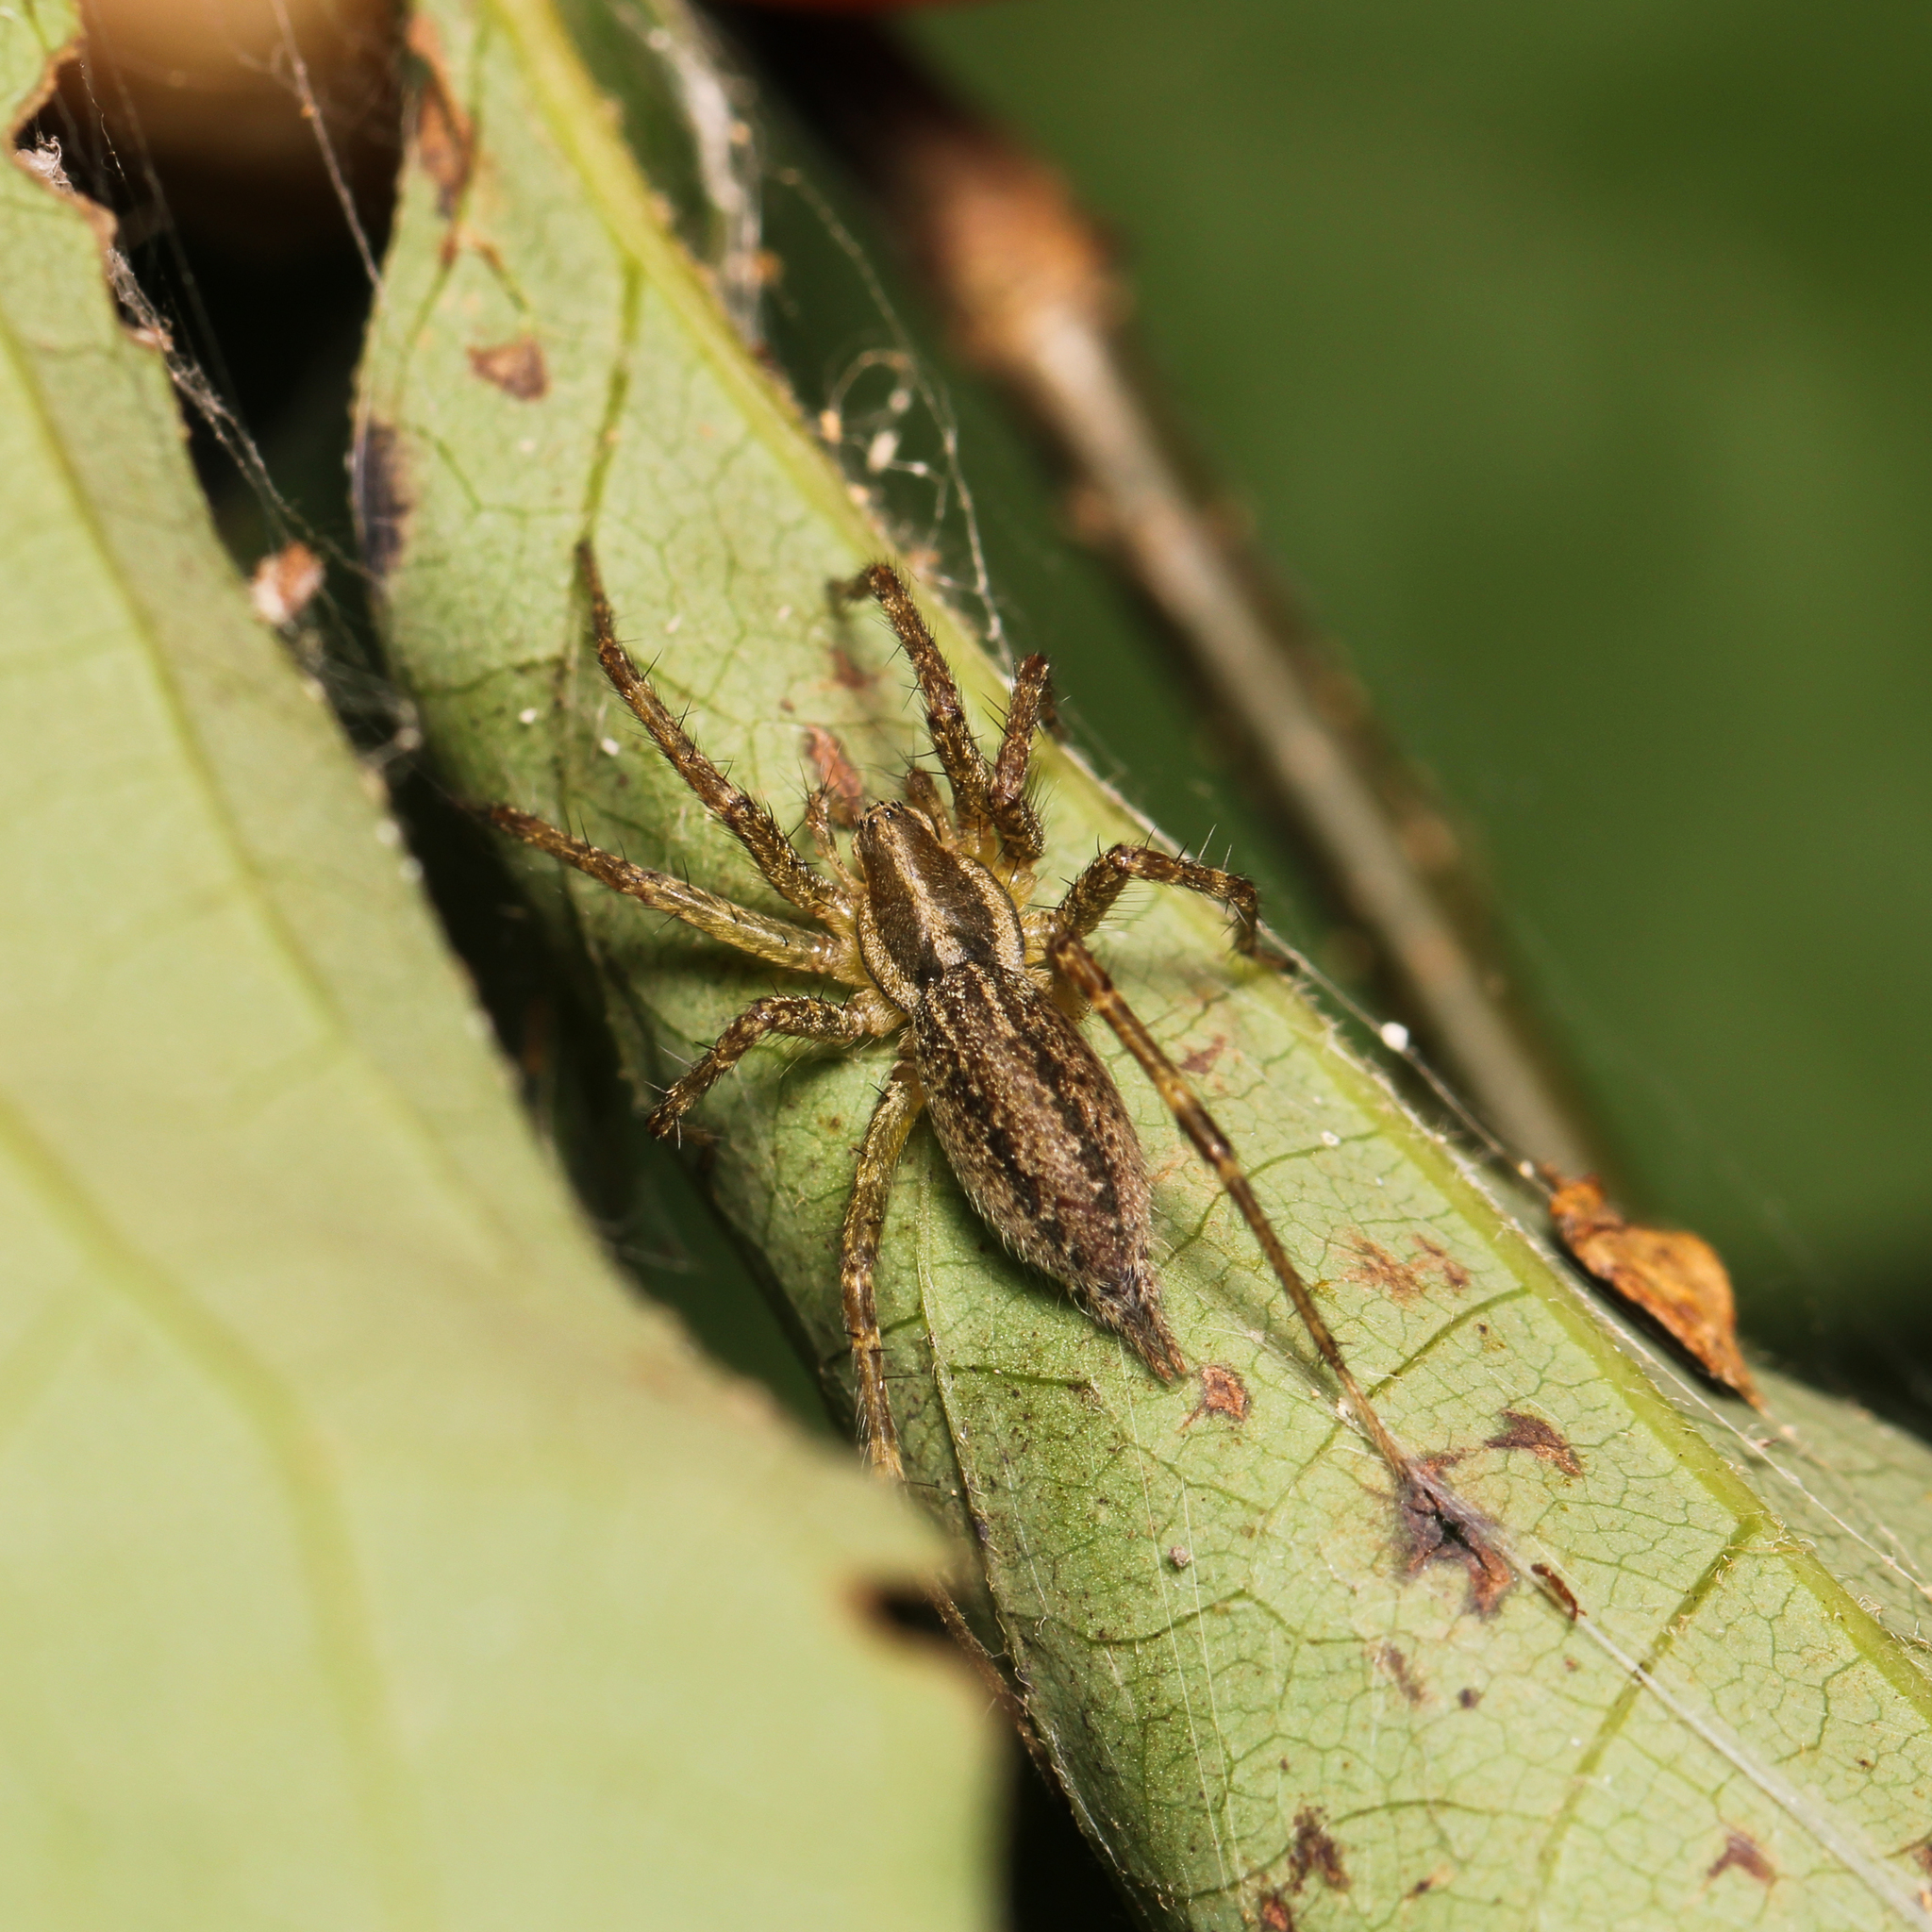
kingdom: Animalia
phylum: Arthropoda
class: Arachnida
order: Araneae
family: Agelenidae
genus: Agelenopsis
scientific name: Agelenopsis
